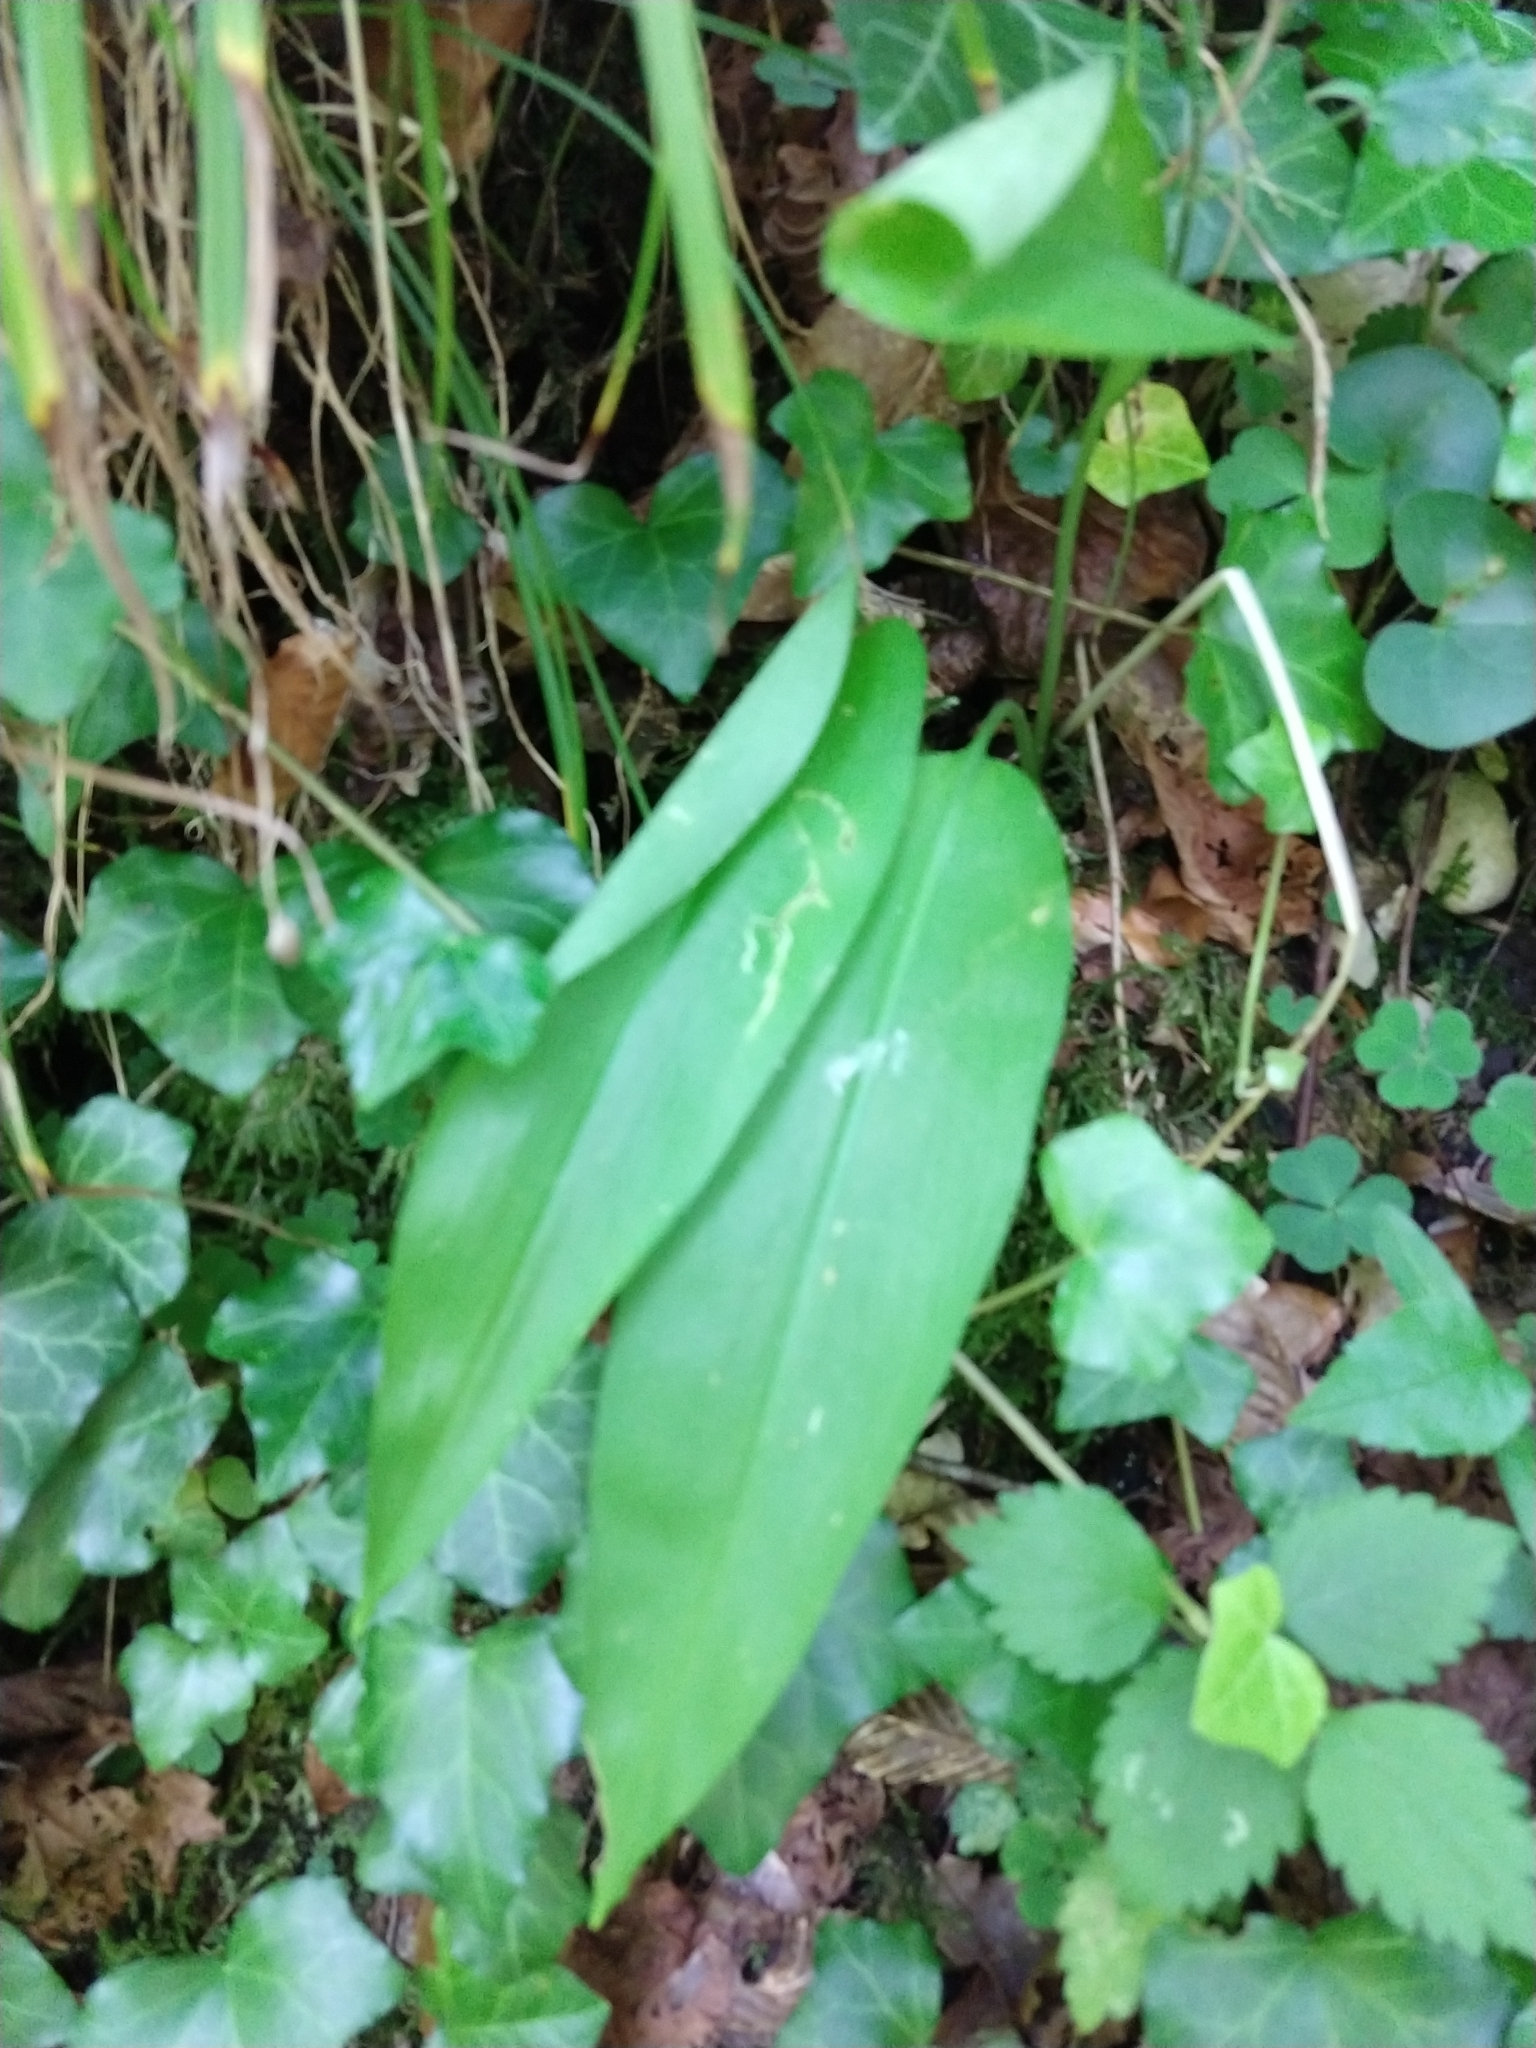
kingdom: Plantae
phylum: Tracheophyta
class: Liliopsida
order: Asparagales
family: Amaryllidaceae
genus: Allium
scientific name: Allium ursinum
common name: Ramsons
